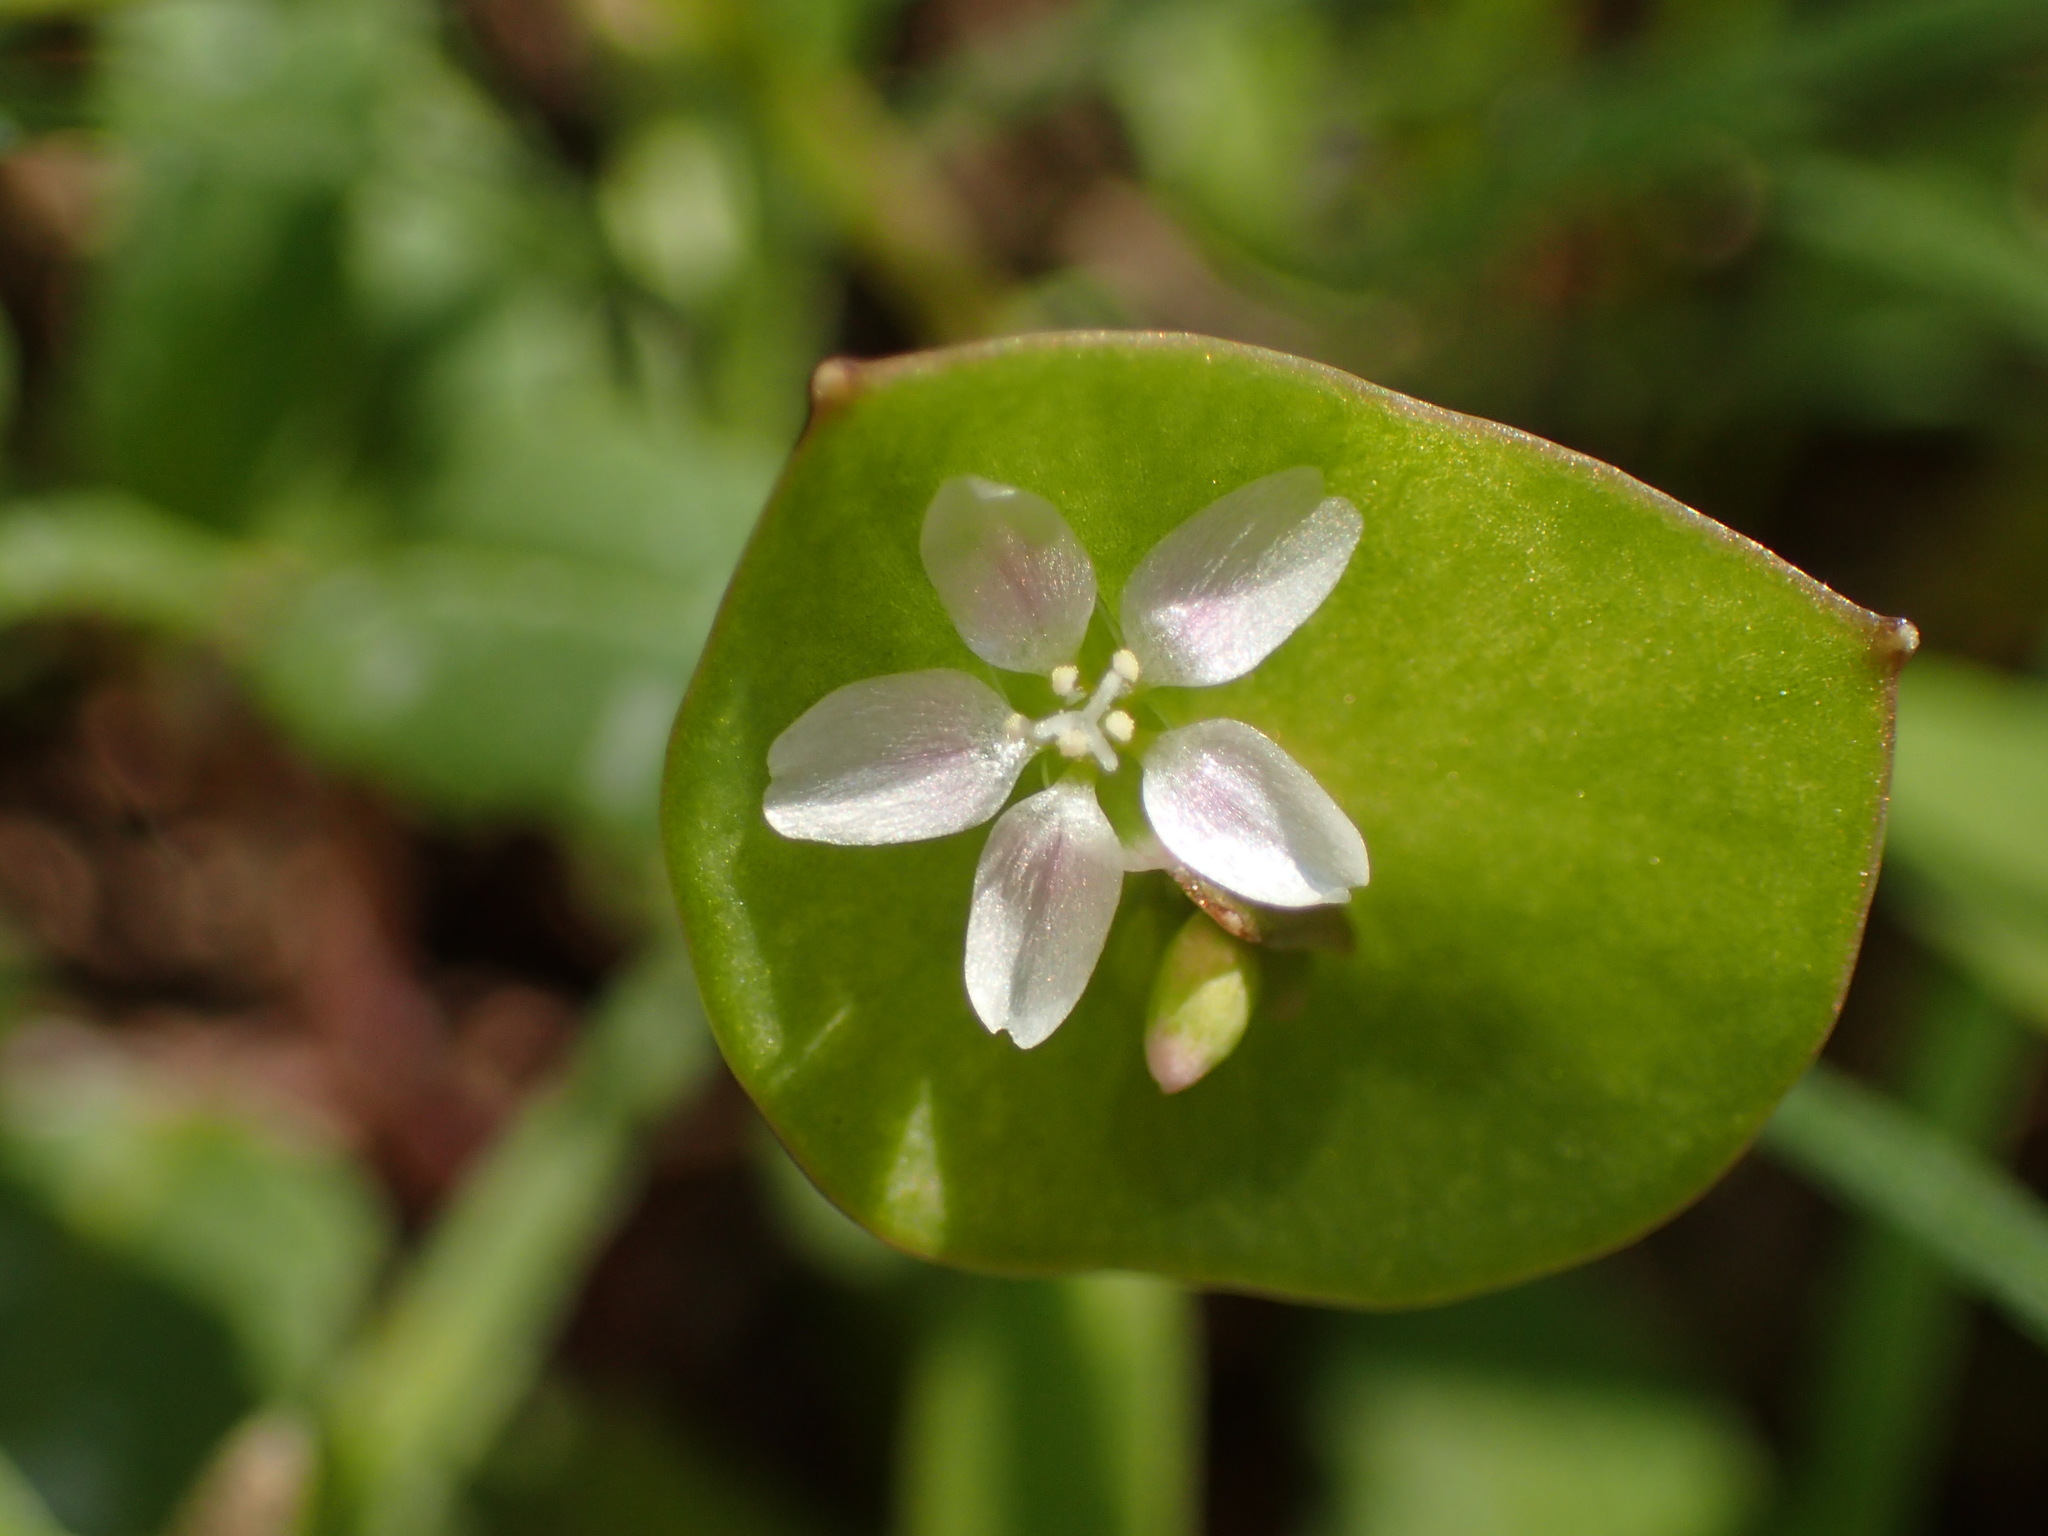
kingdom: Plantae
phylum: Tracheophyta
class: Magnoliopsida
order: Caryophyllales
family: Montiaceae
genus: Claytonia
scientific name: Claytonia perfoliata
